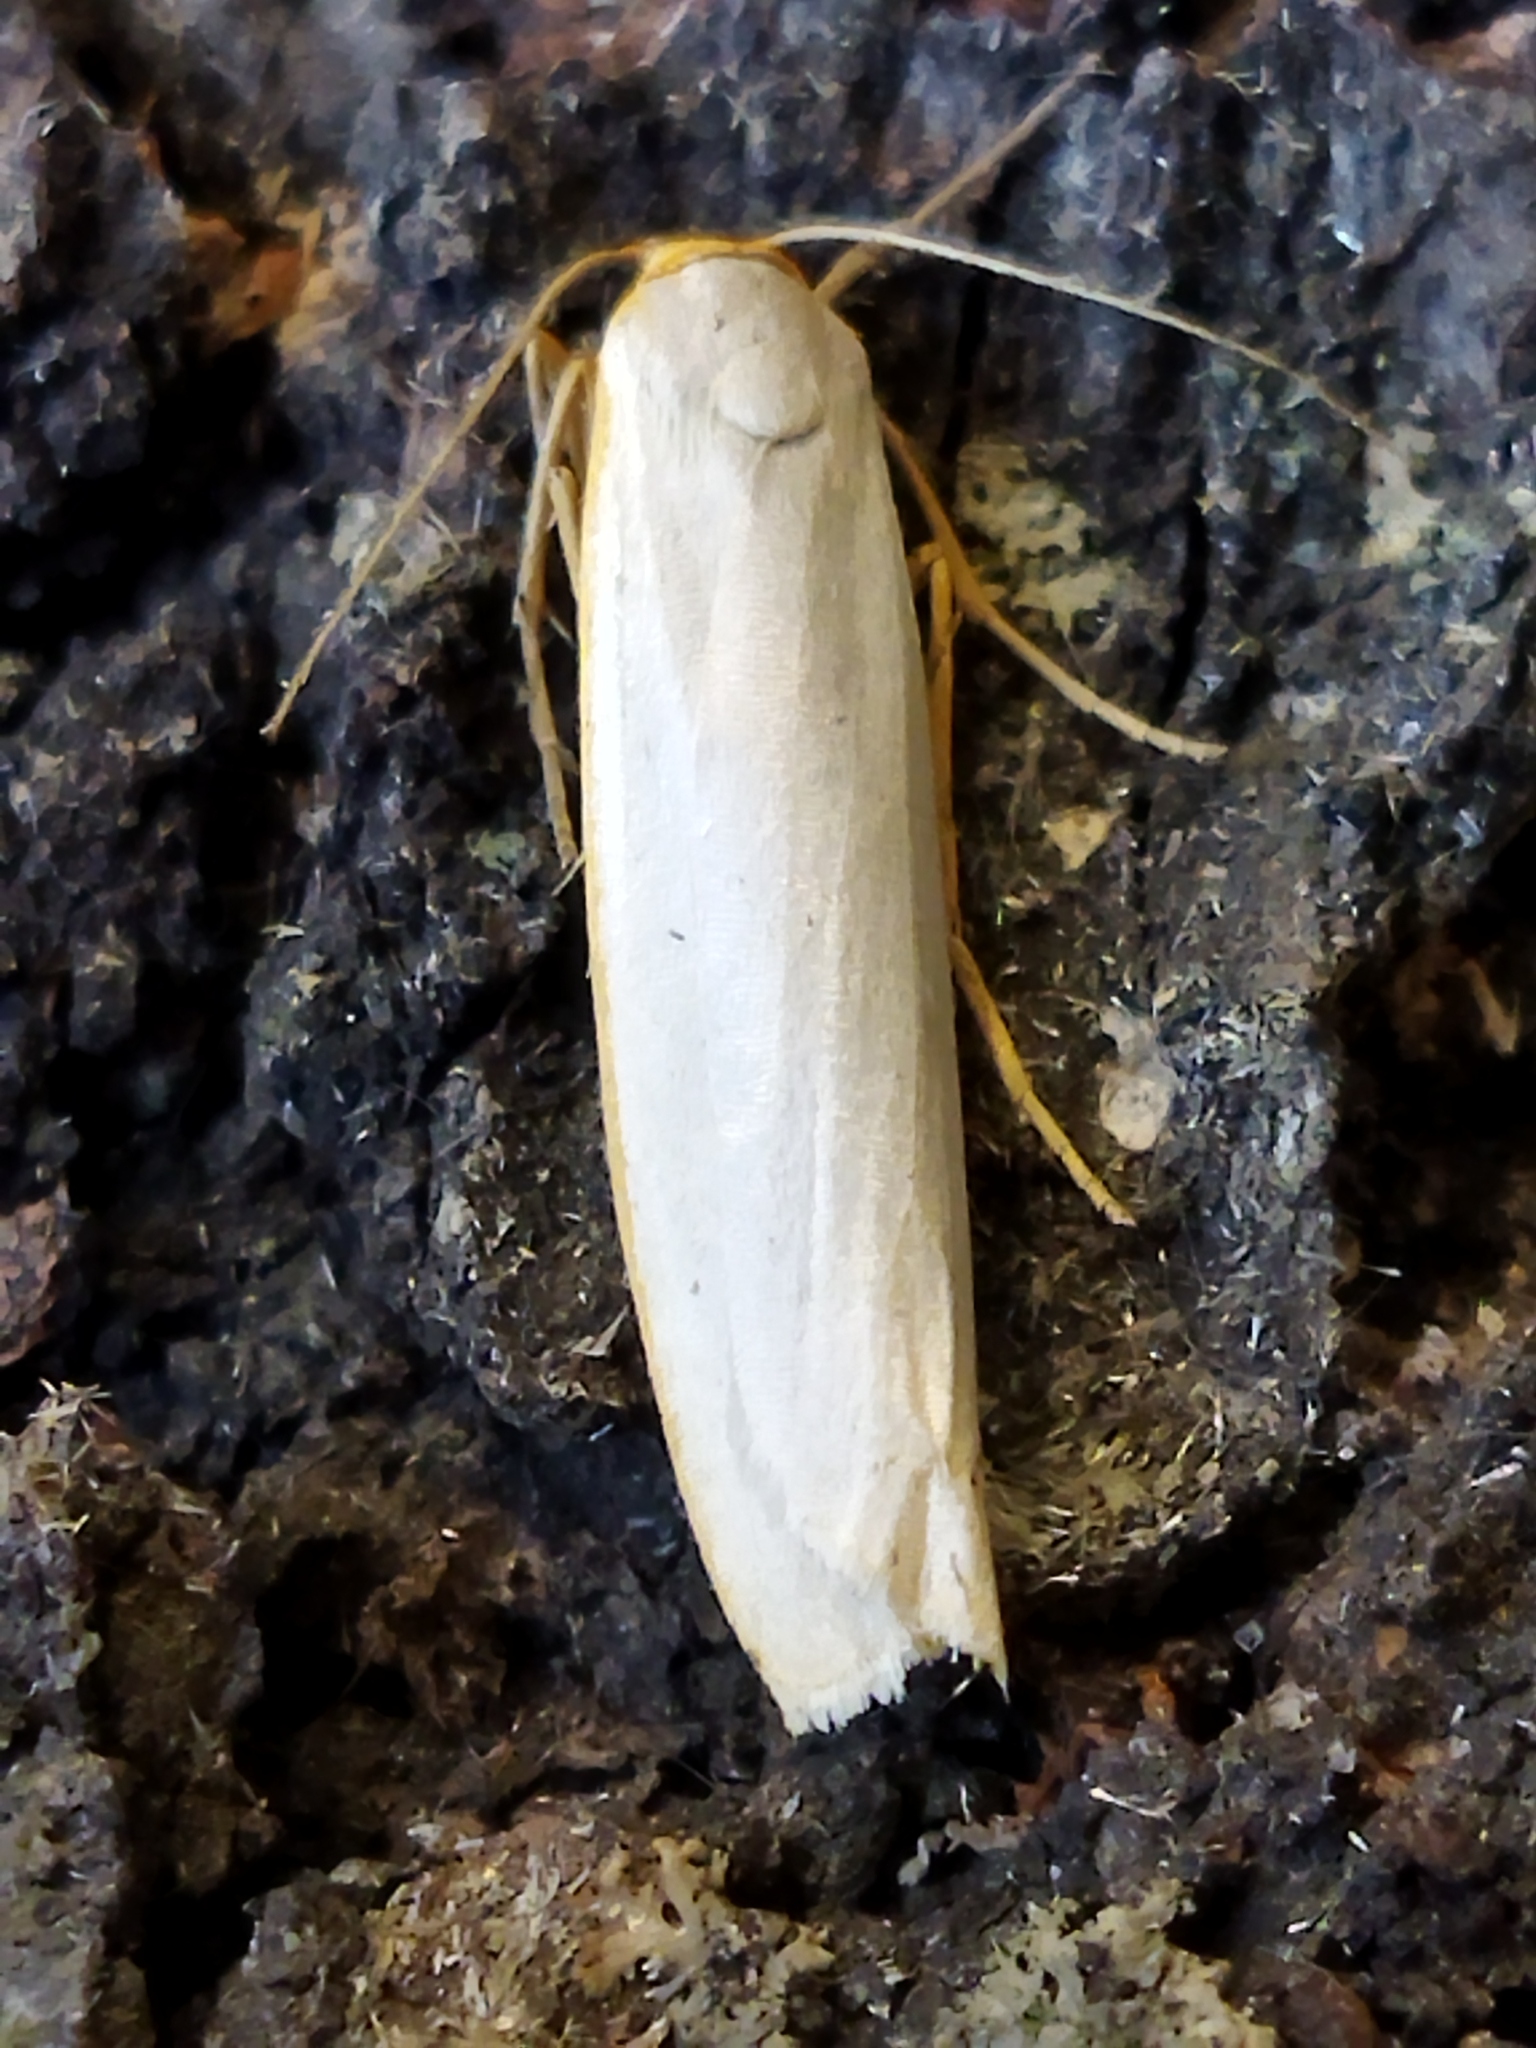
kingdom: Animalia
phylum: Arthropoda
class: Insecta
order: Lepidoptera
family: Erebidae
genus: Eilema
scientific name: Eilema caniola
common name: Hoary footman
